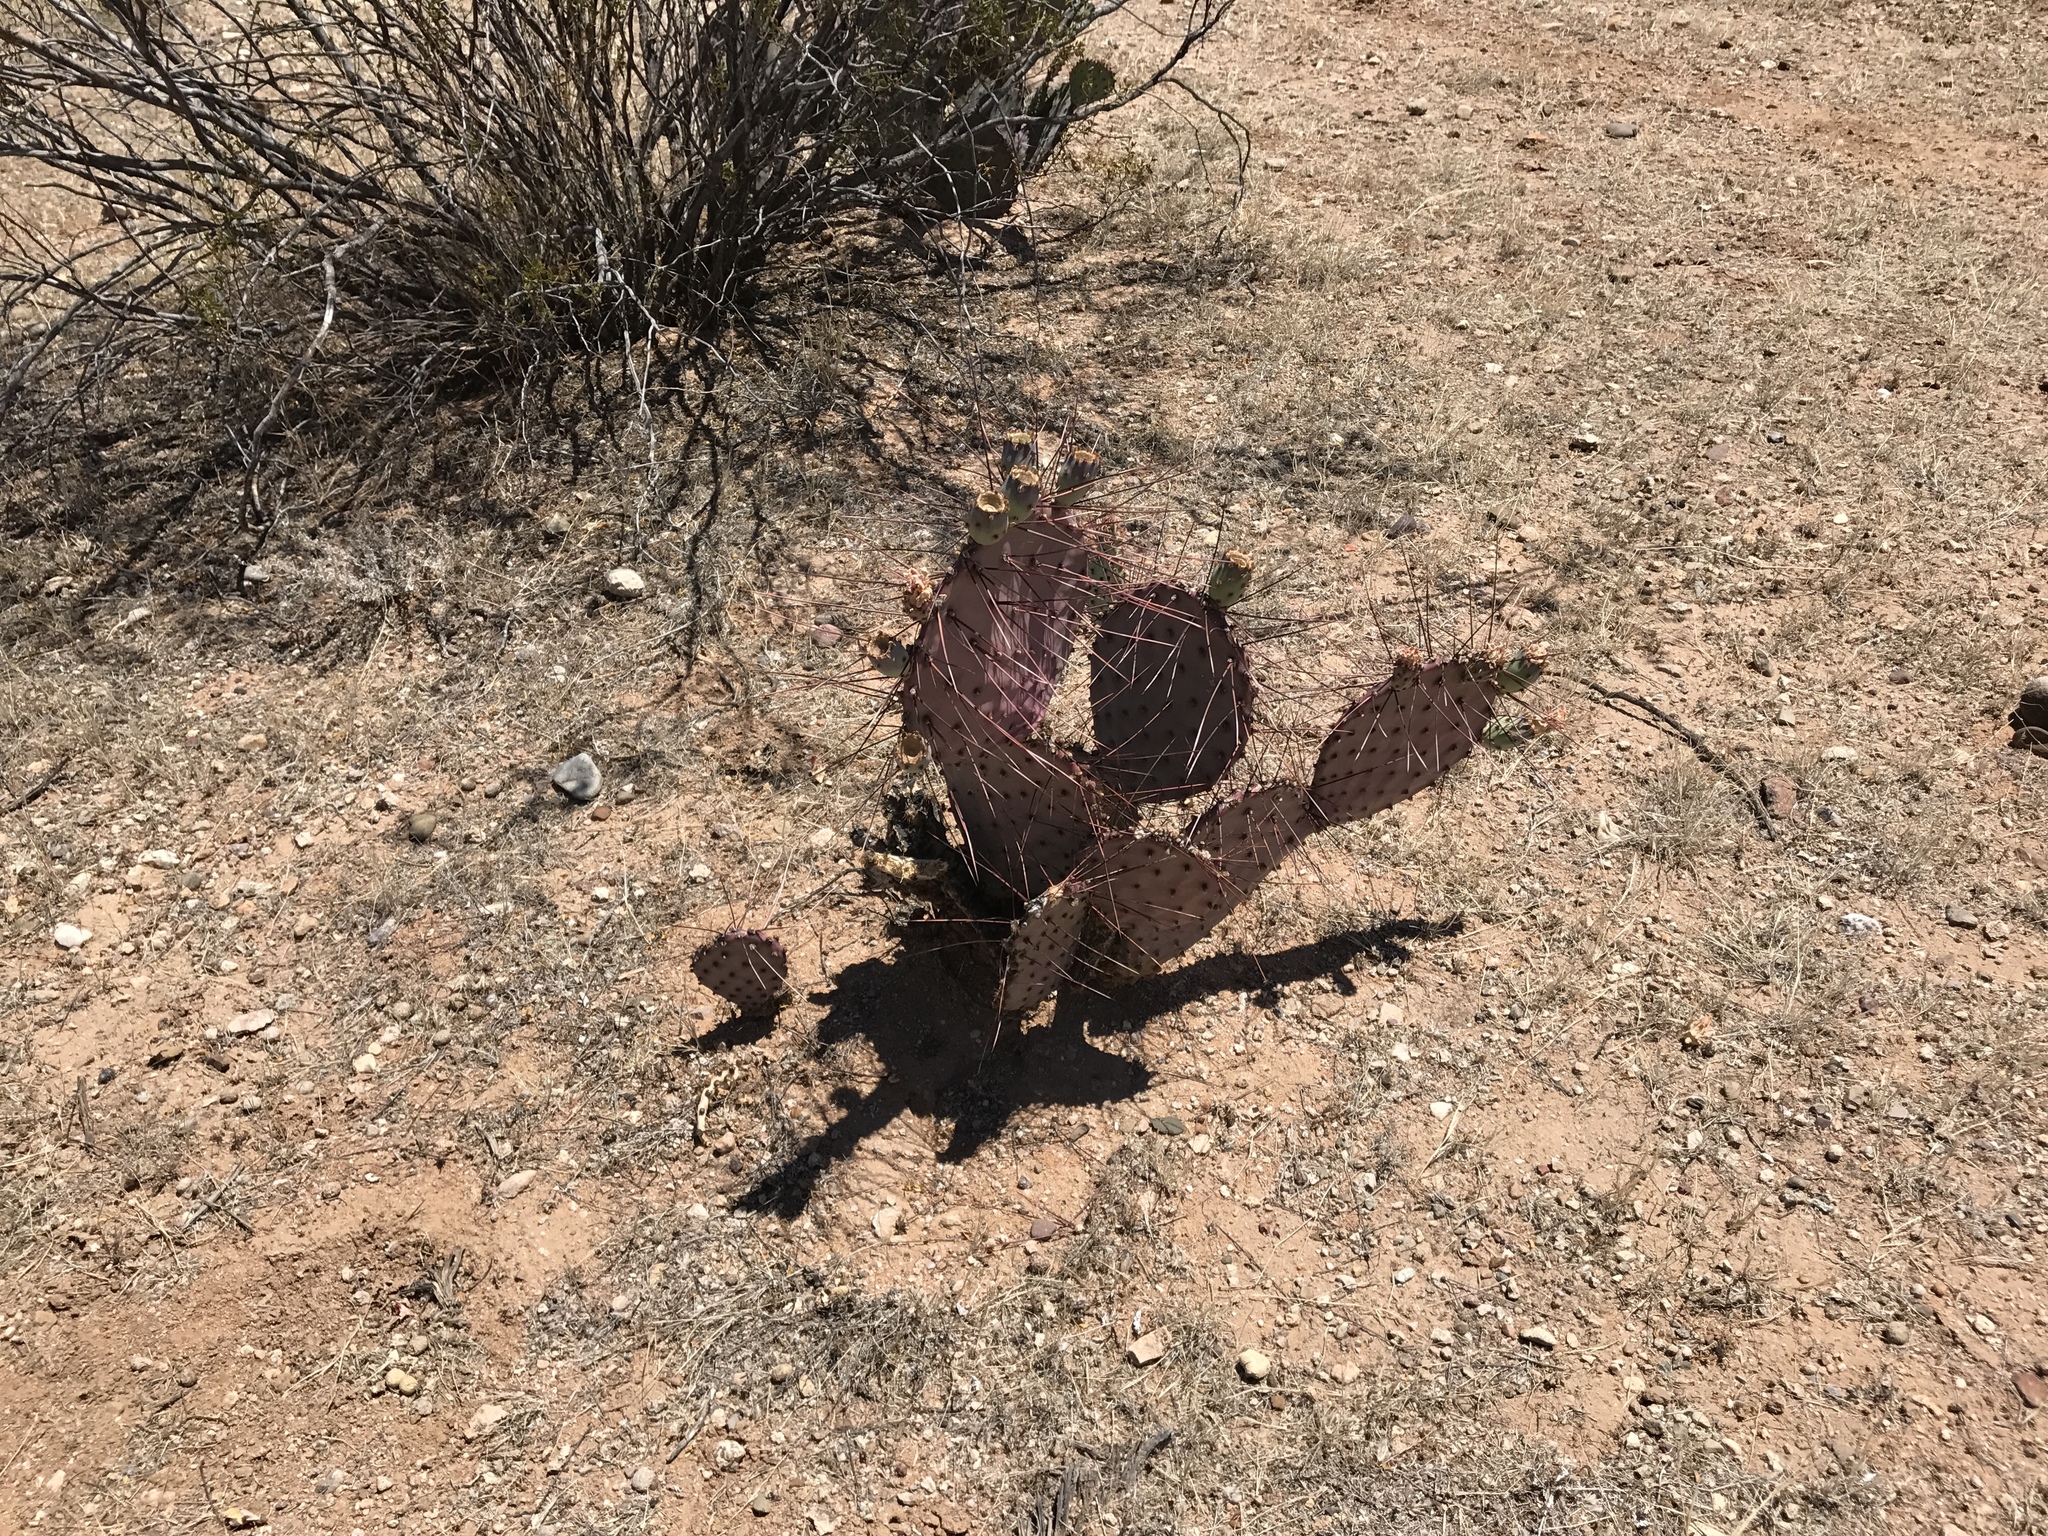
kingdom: Plantae
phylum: Tracheophyta
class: Magnoliopsida
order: Caryophyllales
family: Cactaceae
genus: Opuntia
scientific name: Opuntia macrocentra
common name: Purple prickly-pear
